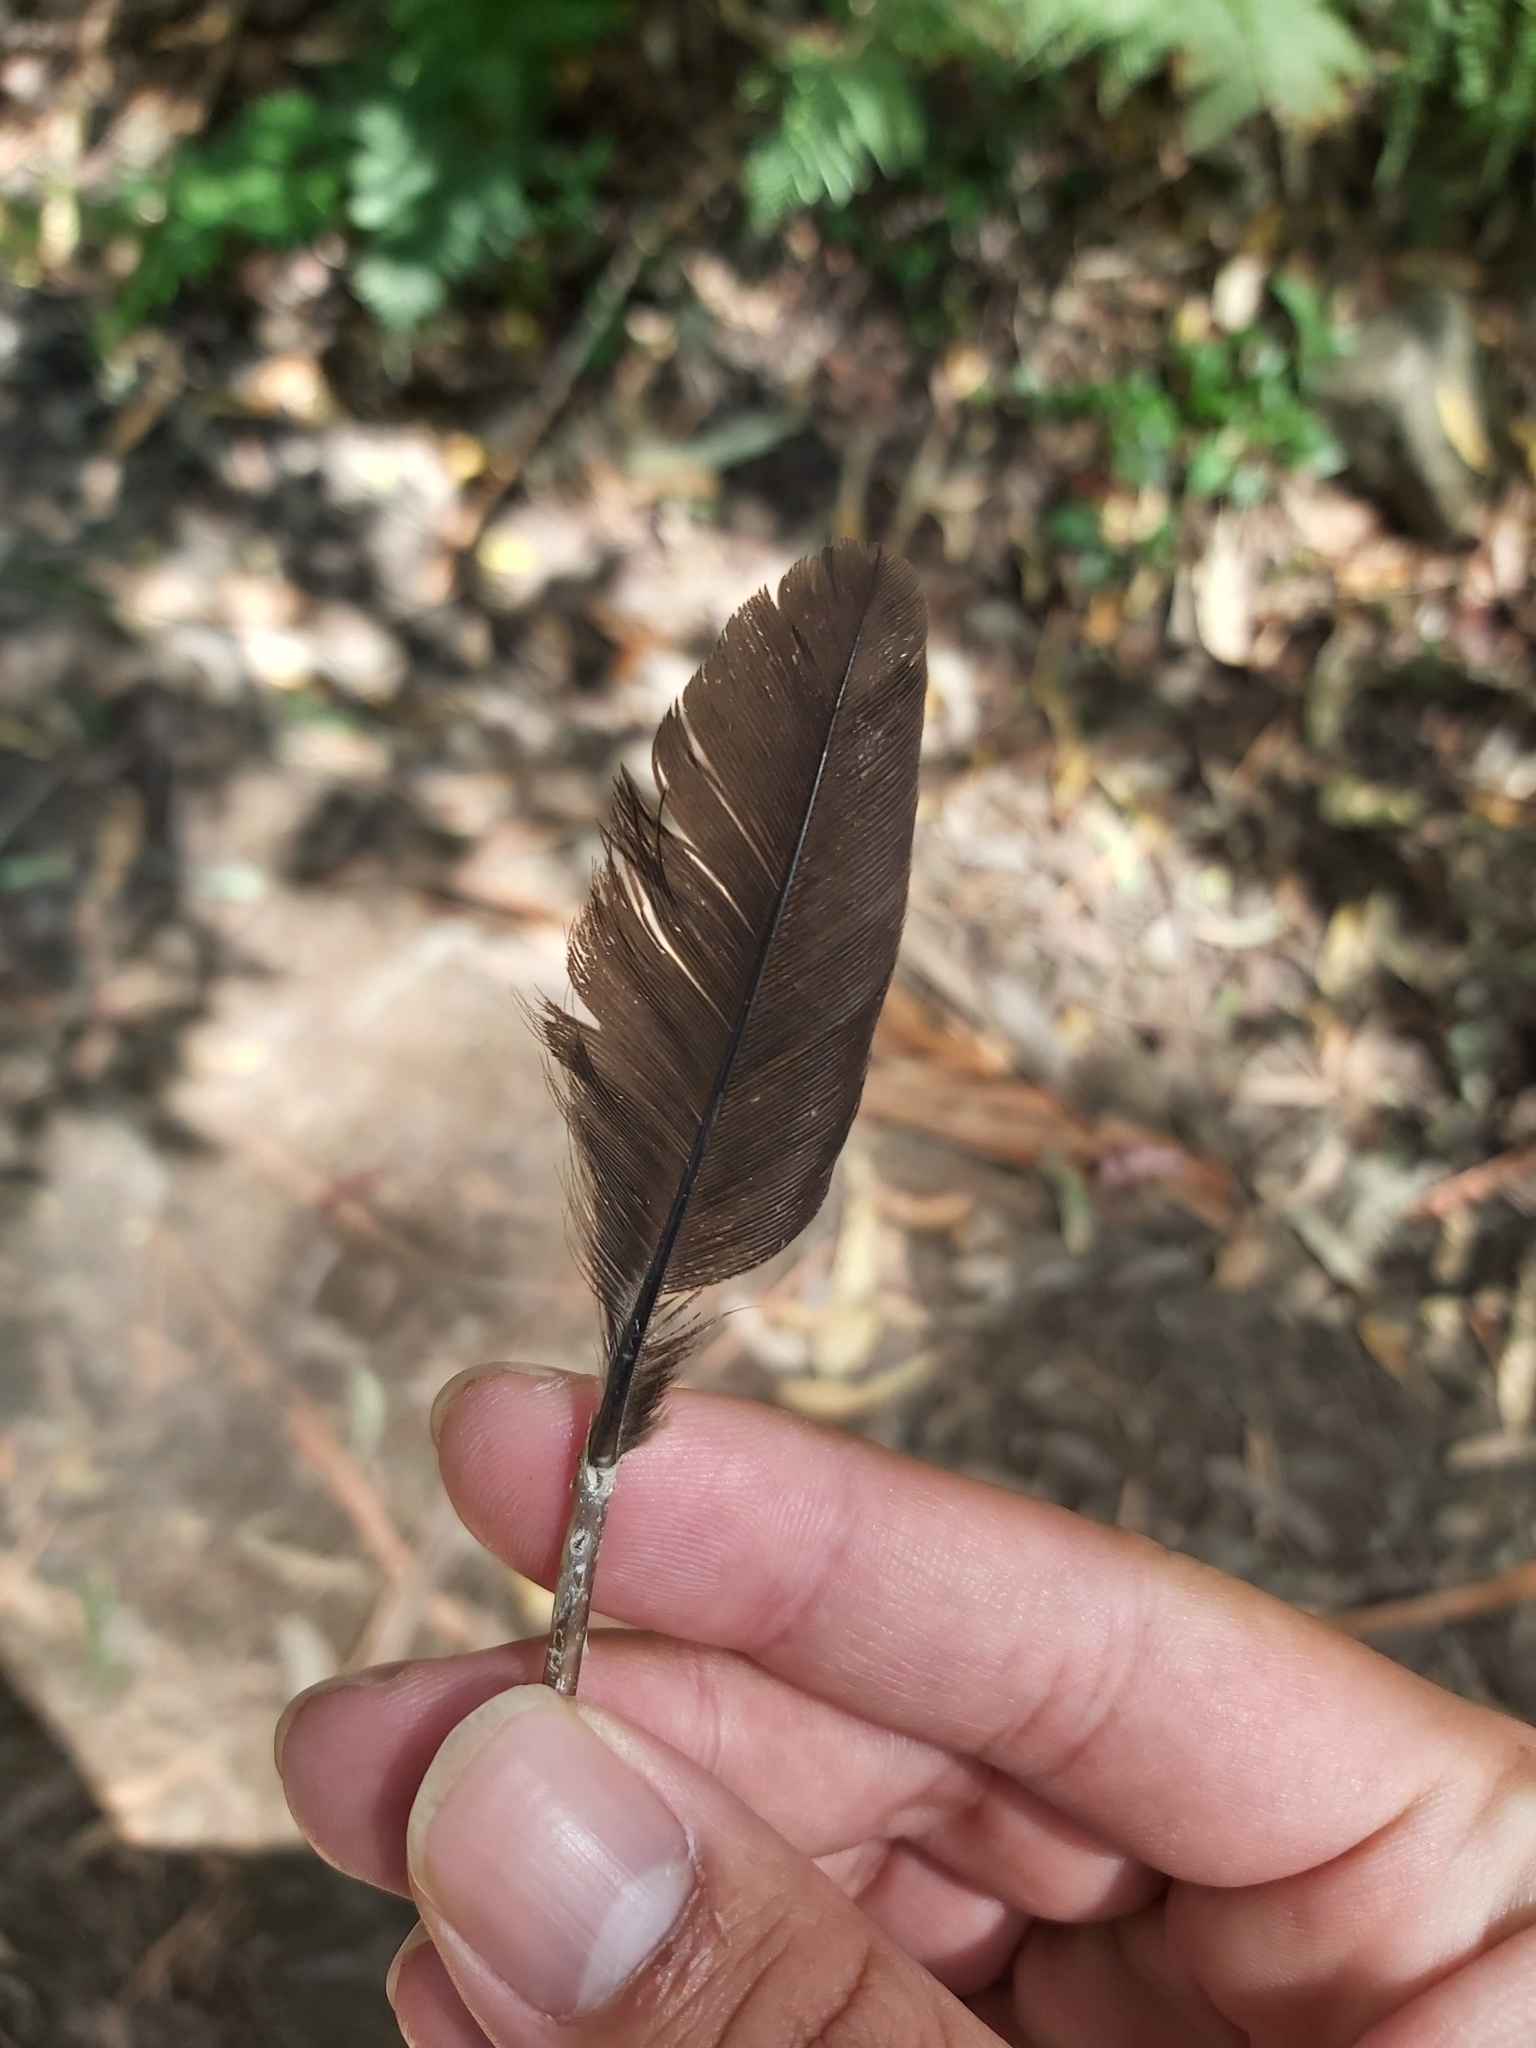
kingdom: Animalia
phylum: Chordata
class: Aves
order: Galliformes
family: Megapodiidae
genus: Alectura
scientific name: Alectura lathami
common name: Australian brushturkey
